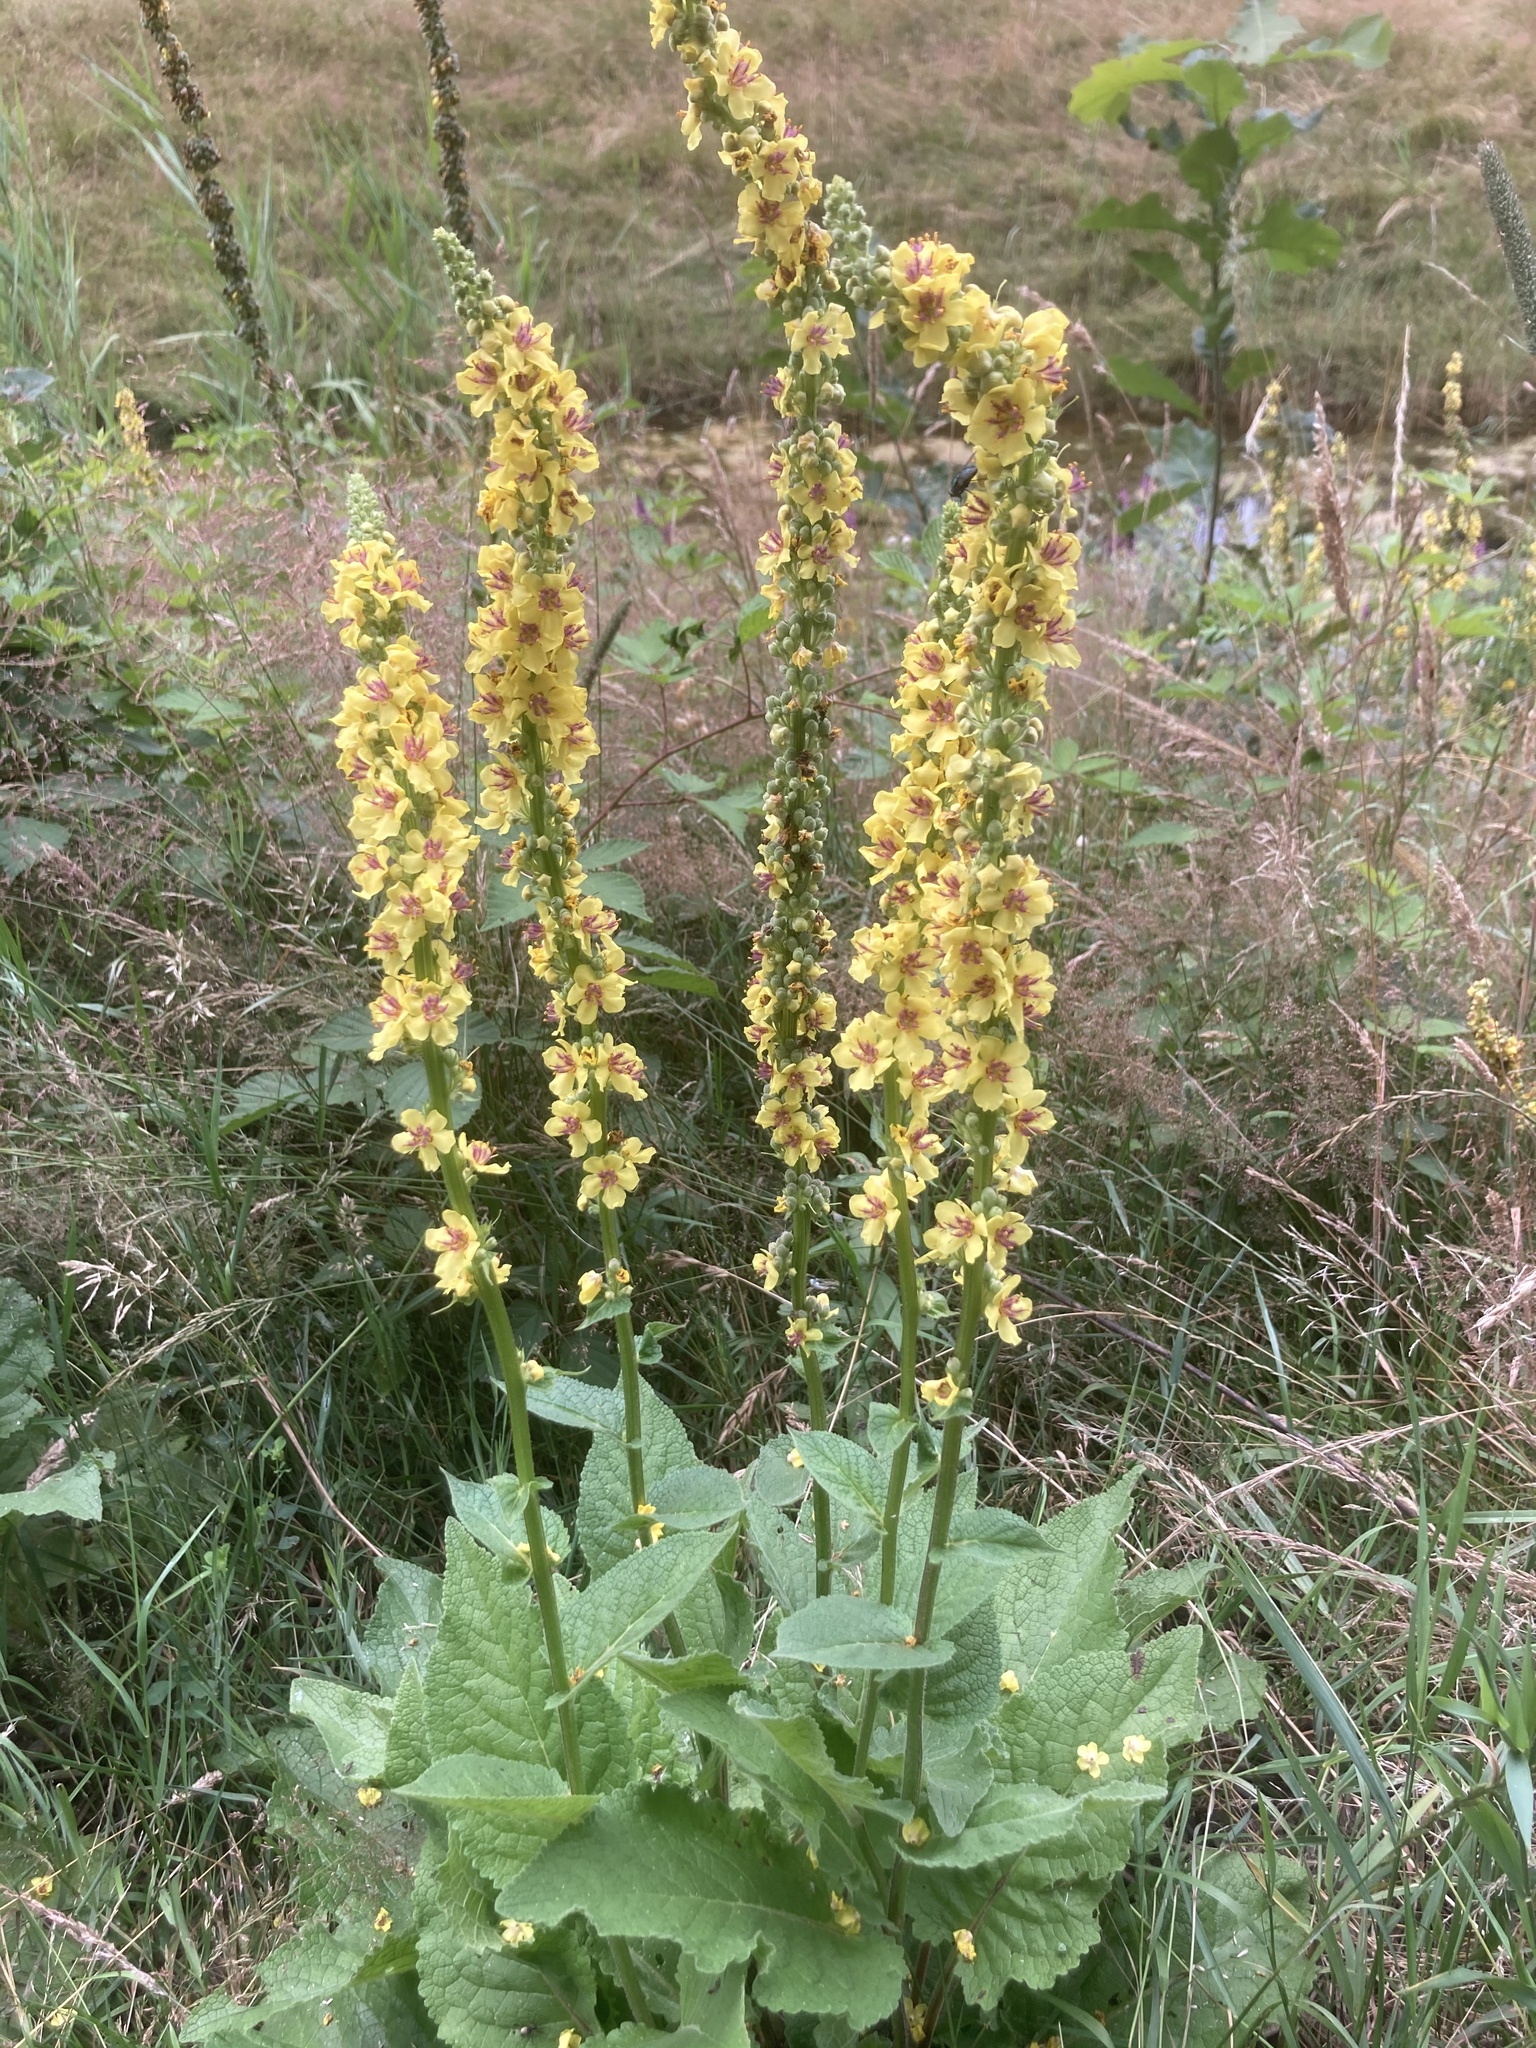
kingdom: Plantae
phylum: Tracheophyta
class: Magnoliopsida
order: Lamiales
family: Scrophulariaceae
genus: Verbascum
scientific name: Verbascum nigrum
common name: Dark mullein
